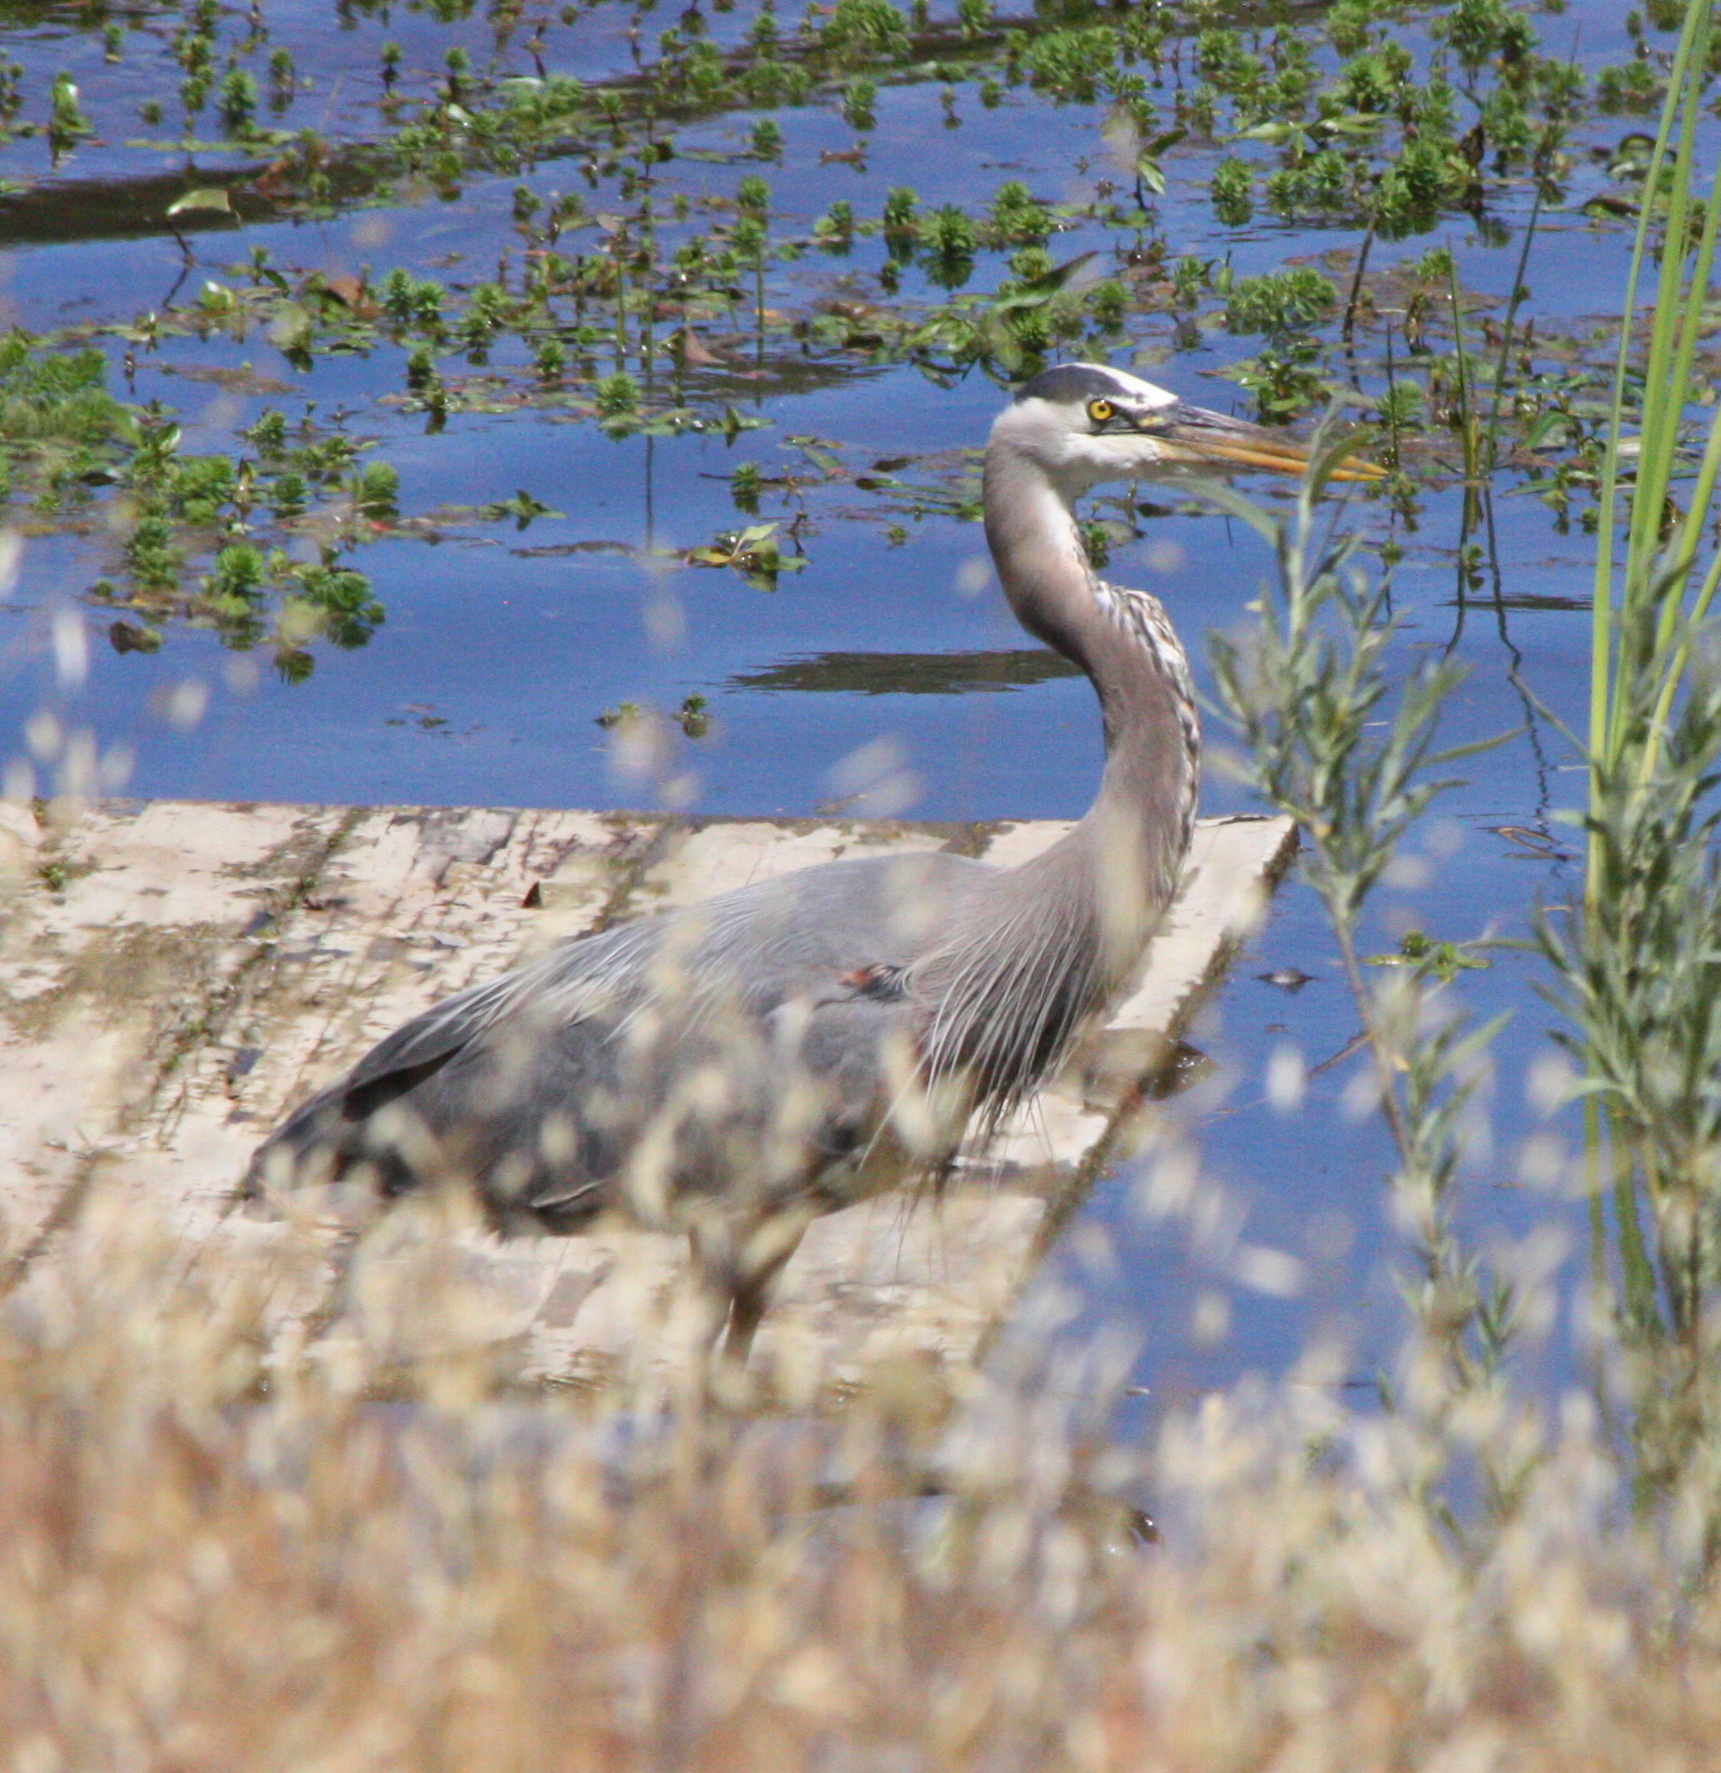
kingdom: Animalia
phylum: Chordata
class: Aves
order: Pelecaniformes
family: Ardeidae
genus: Ardea
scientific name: Ardea herodias
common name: Great blue heron
